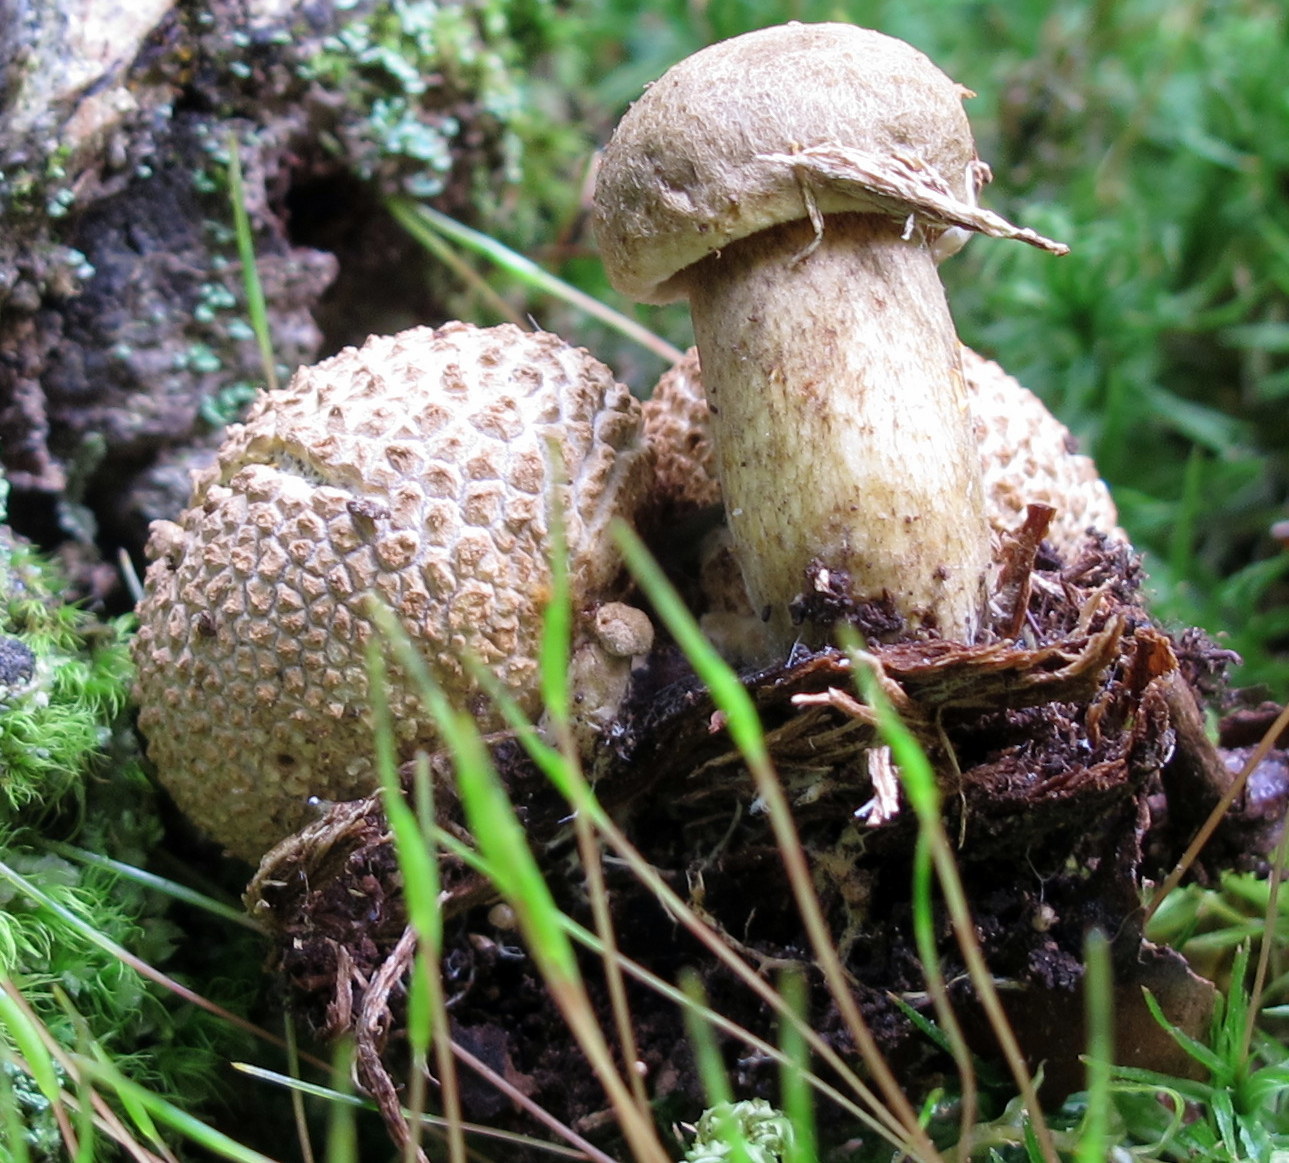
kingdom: Fungi
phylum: Basidiomycota
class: Agaricomycetes
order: Boletales
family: Boletaceae
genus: Pseudoboletus
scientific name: Pseudoboletus parasiticus
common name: Parasitic bolete
